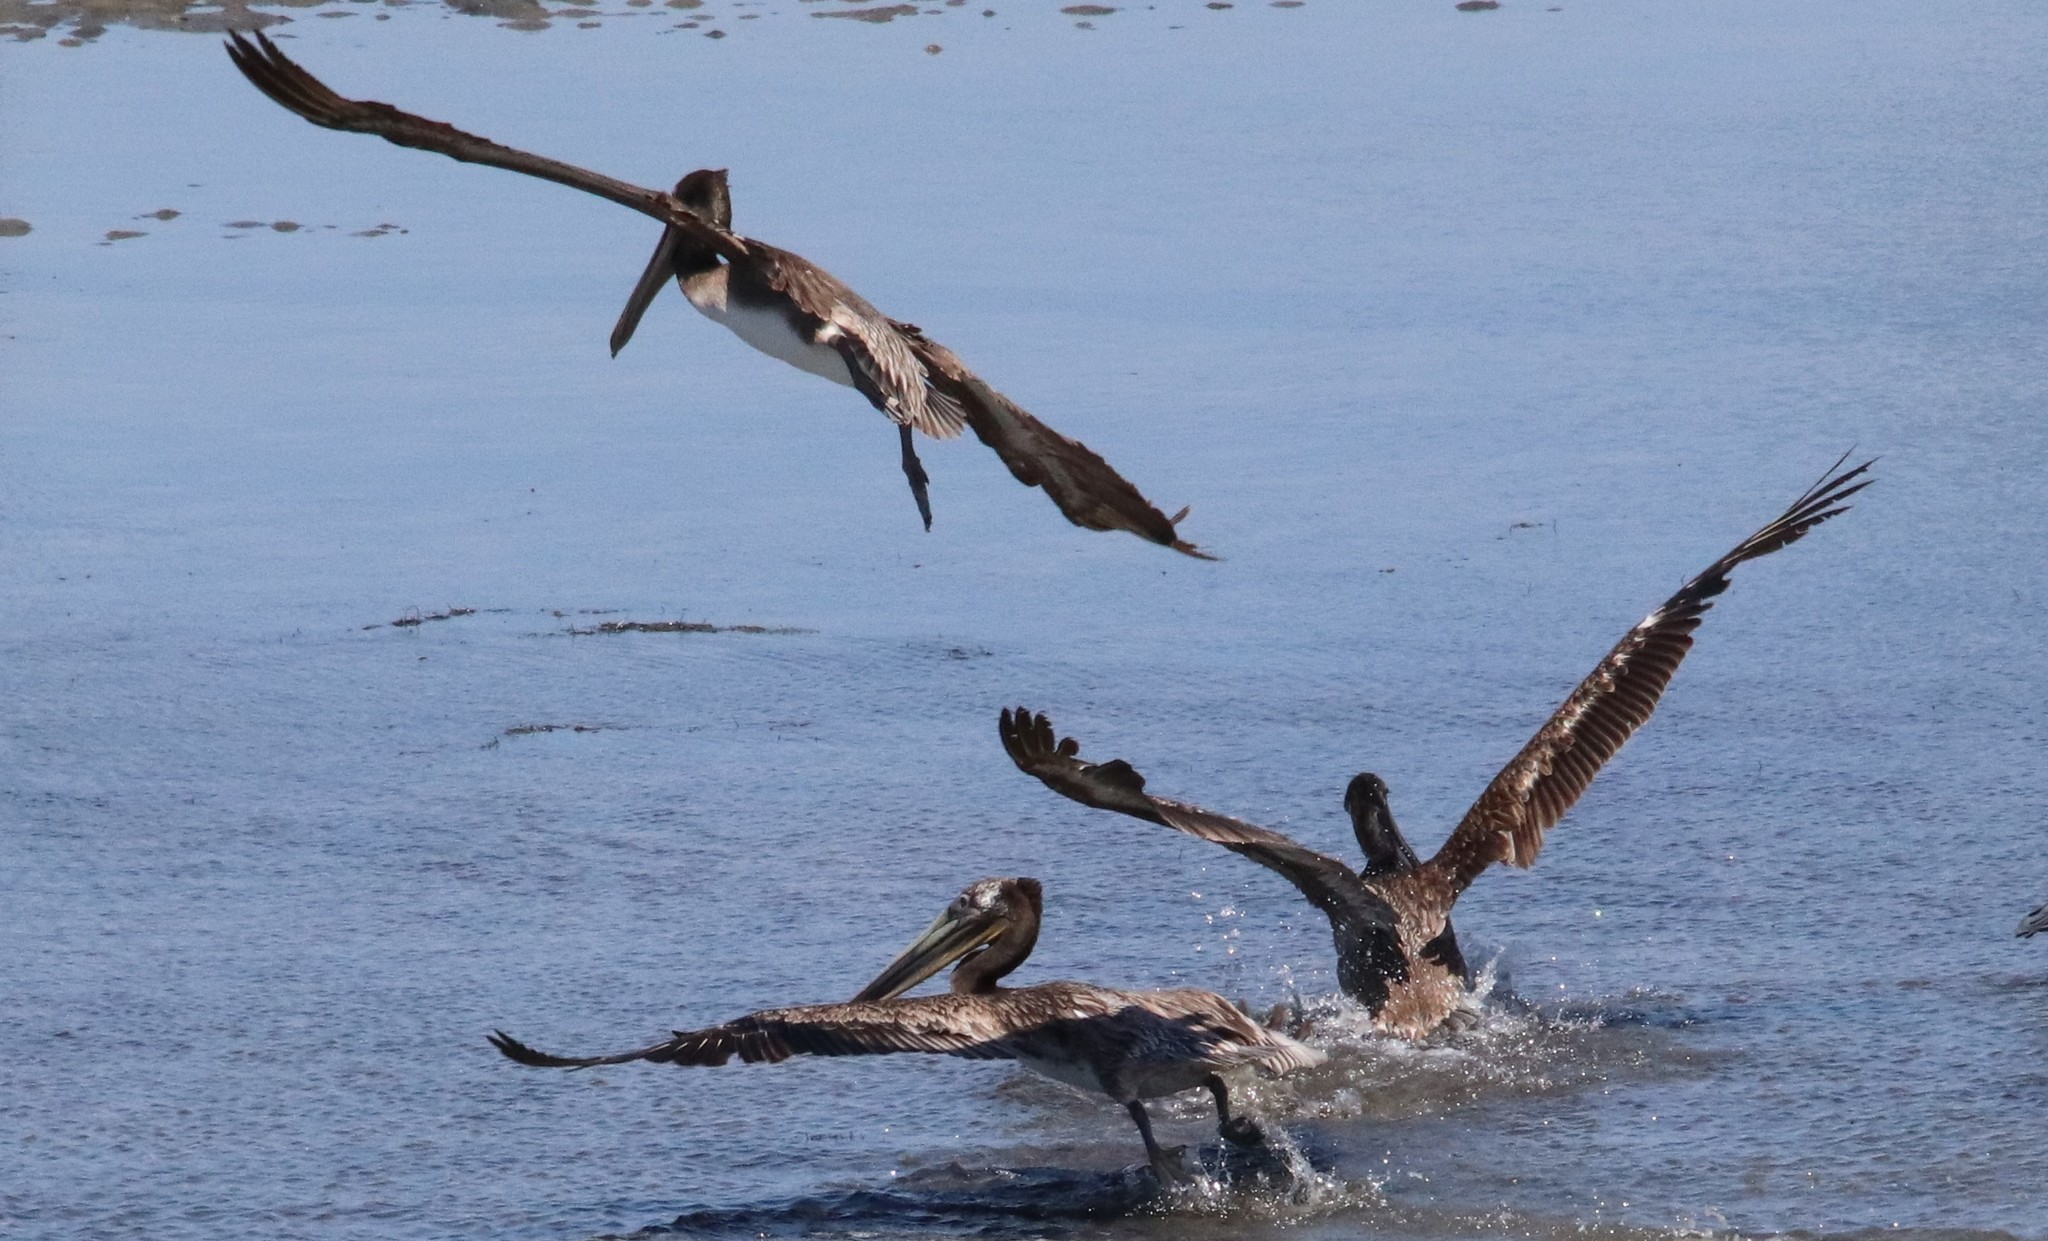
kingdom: Animalia
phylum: Chordata
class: Aves
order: Pelecaniformes
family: Pelecanidae
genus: Pelecanus
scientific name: Pelecanus occidentalis
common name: Brown pelican
